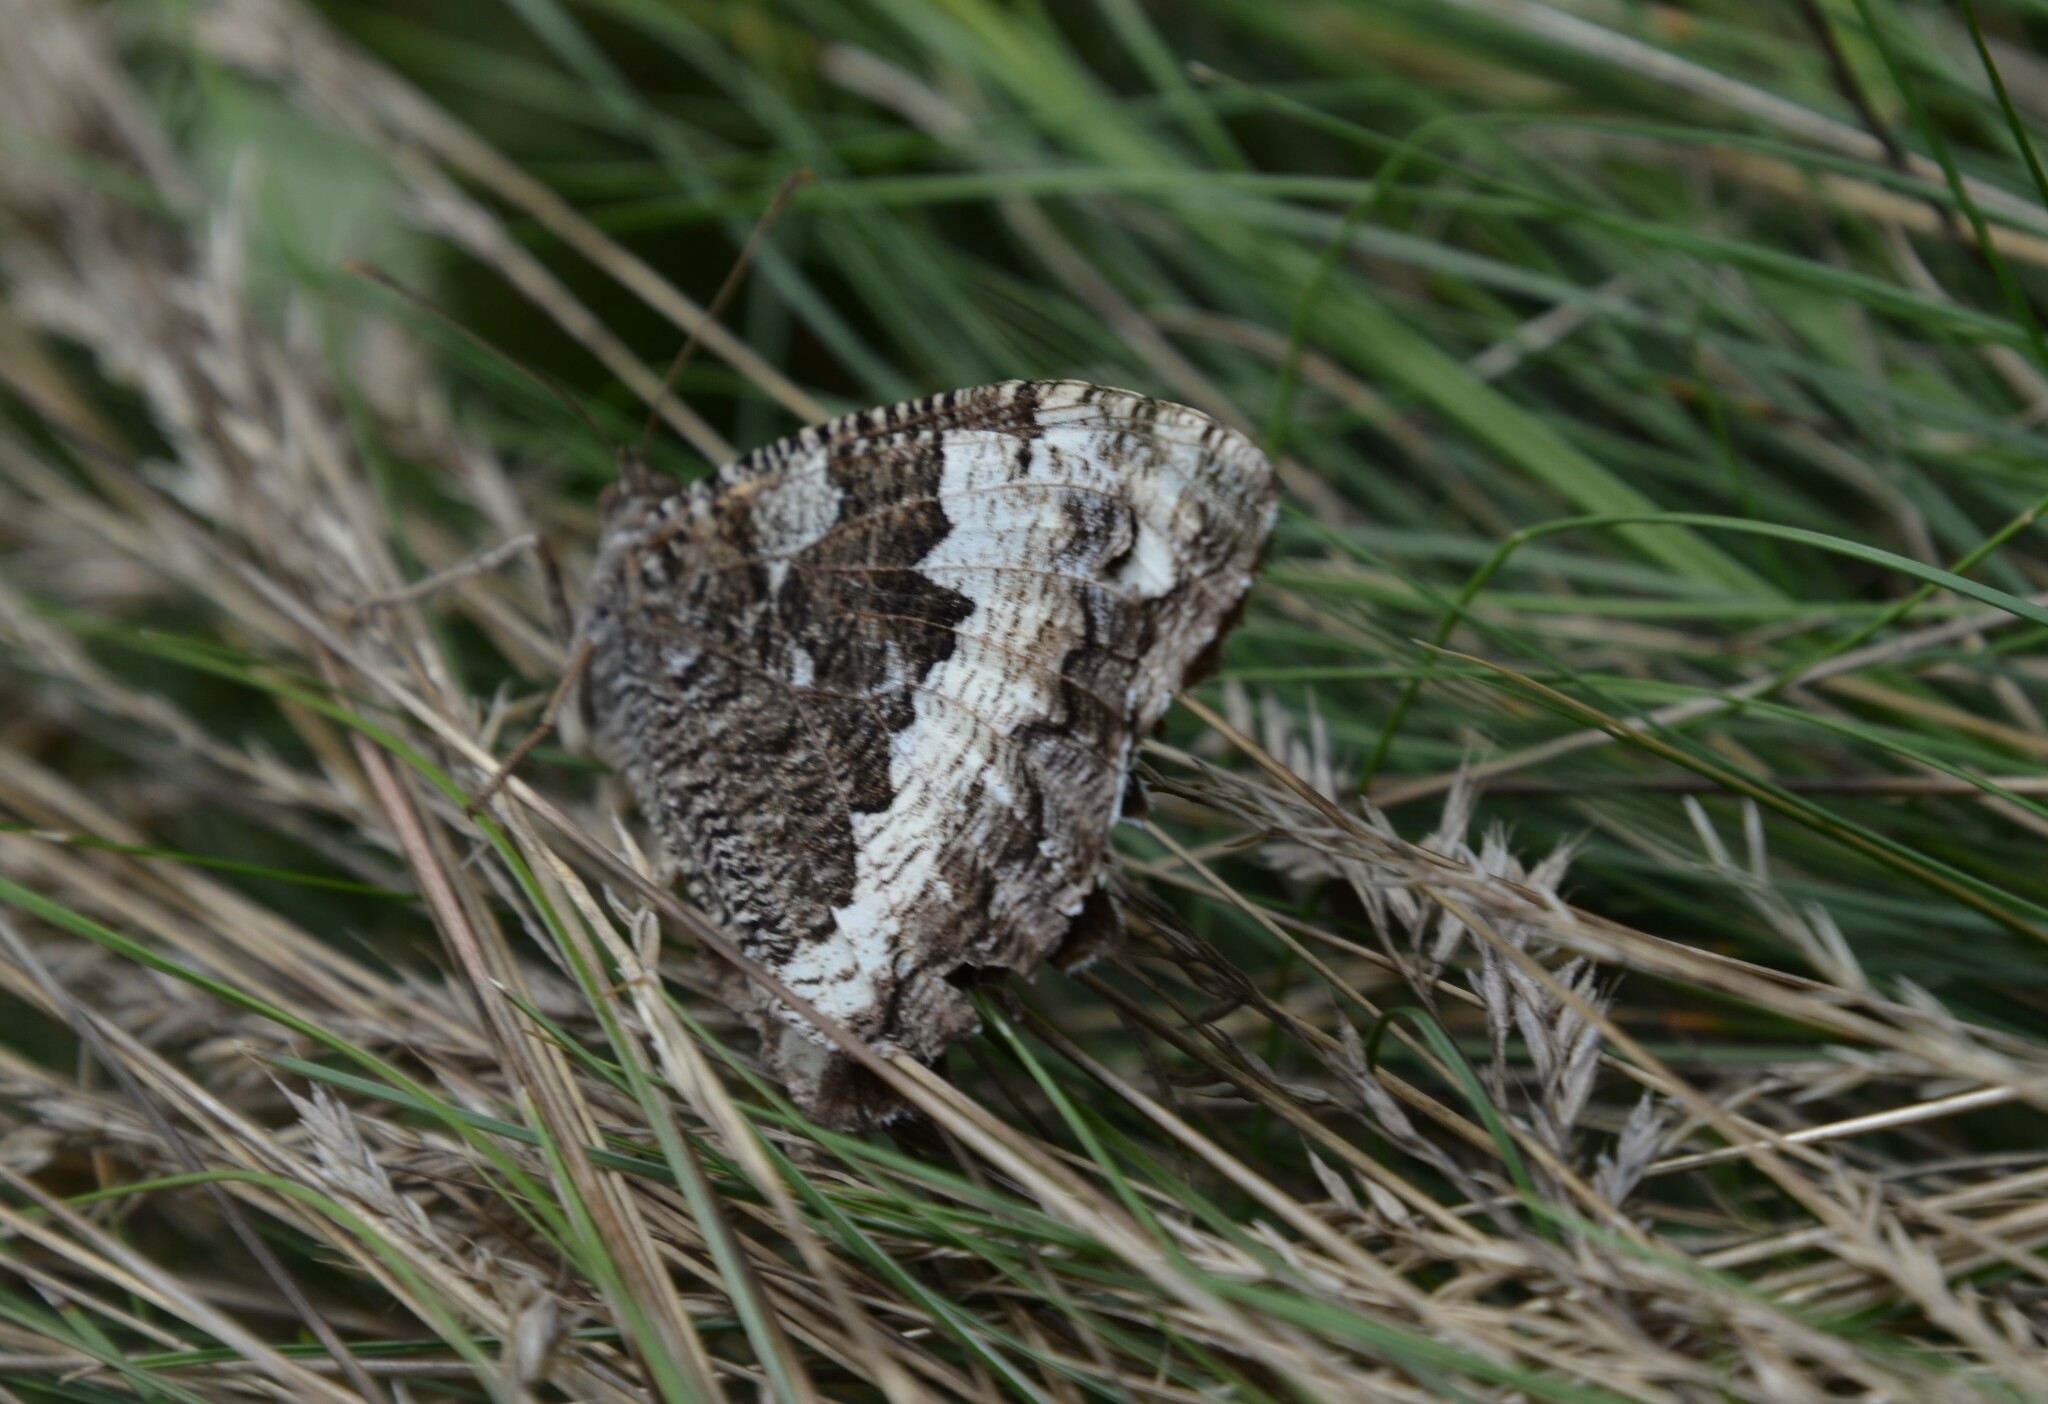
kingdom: Animalia
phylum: Arthropoda
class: Insecta
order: Lepidoptera
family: Lycaenidae
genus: Loweia
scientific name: Loweia tityrus
